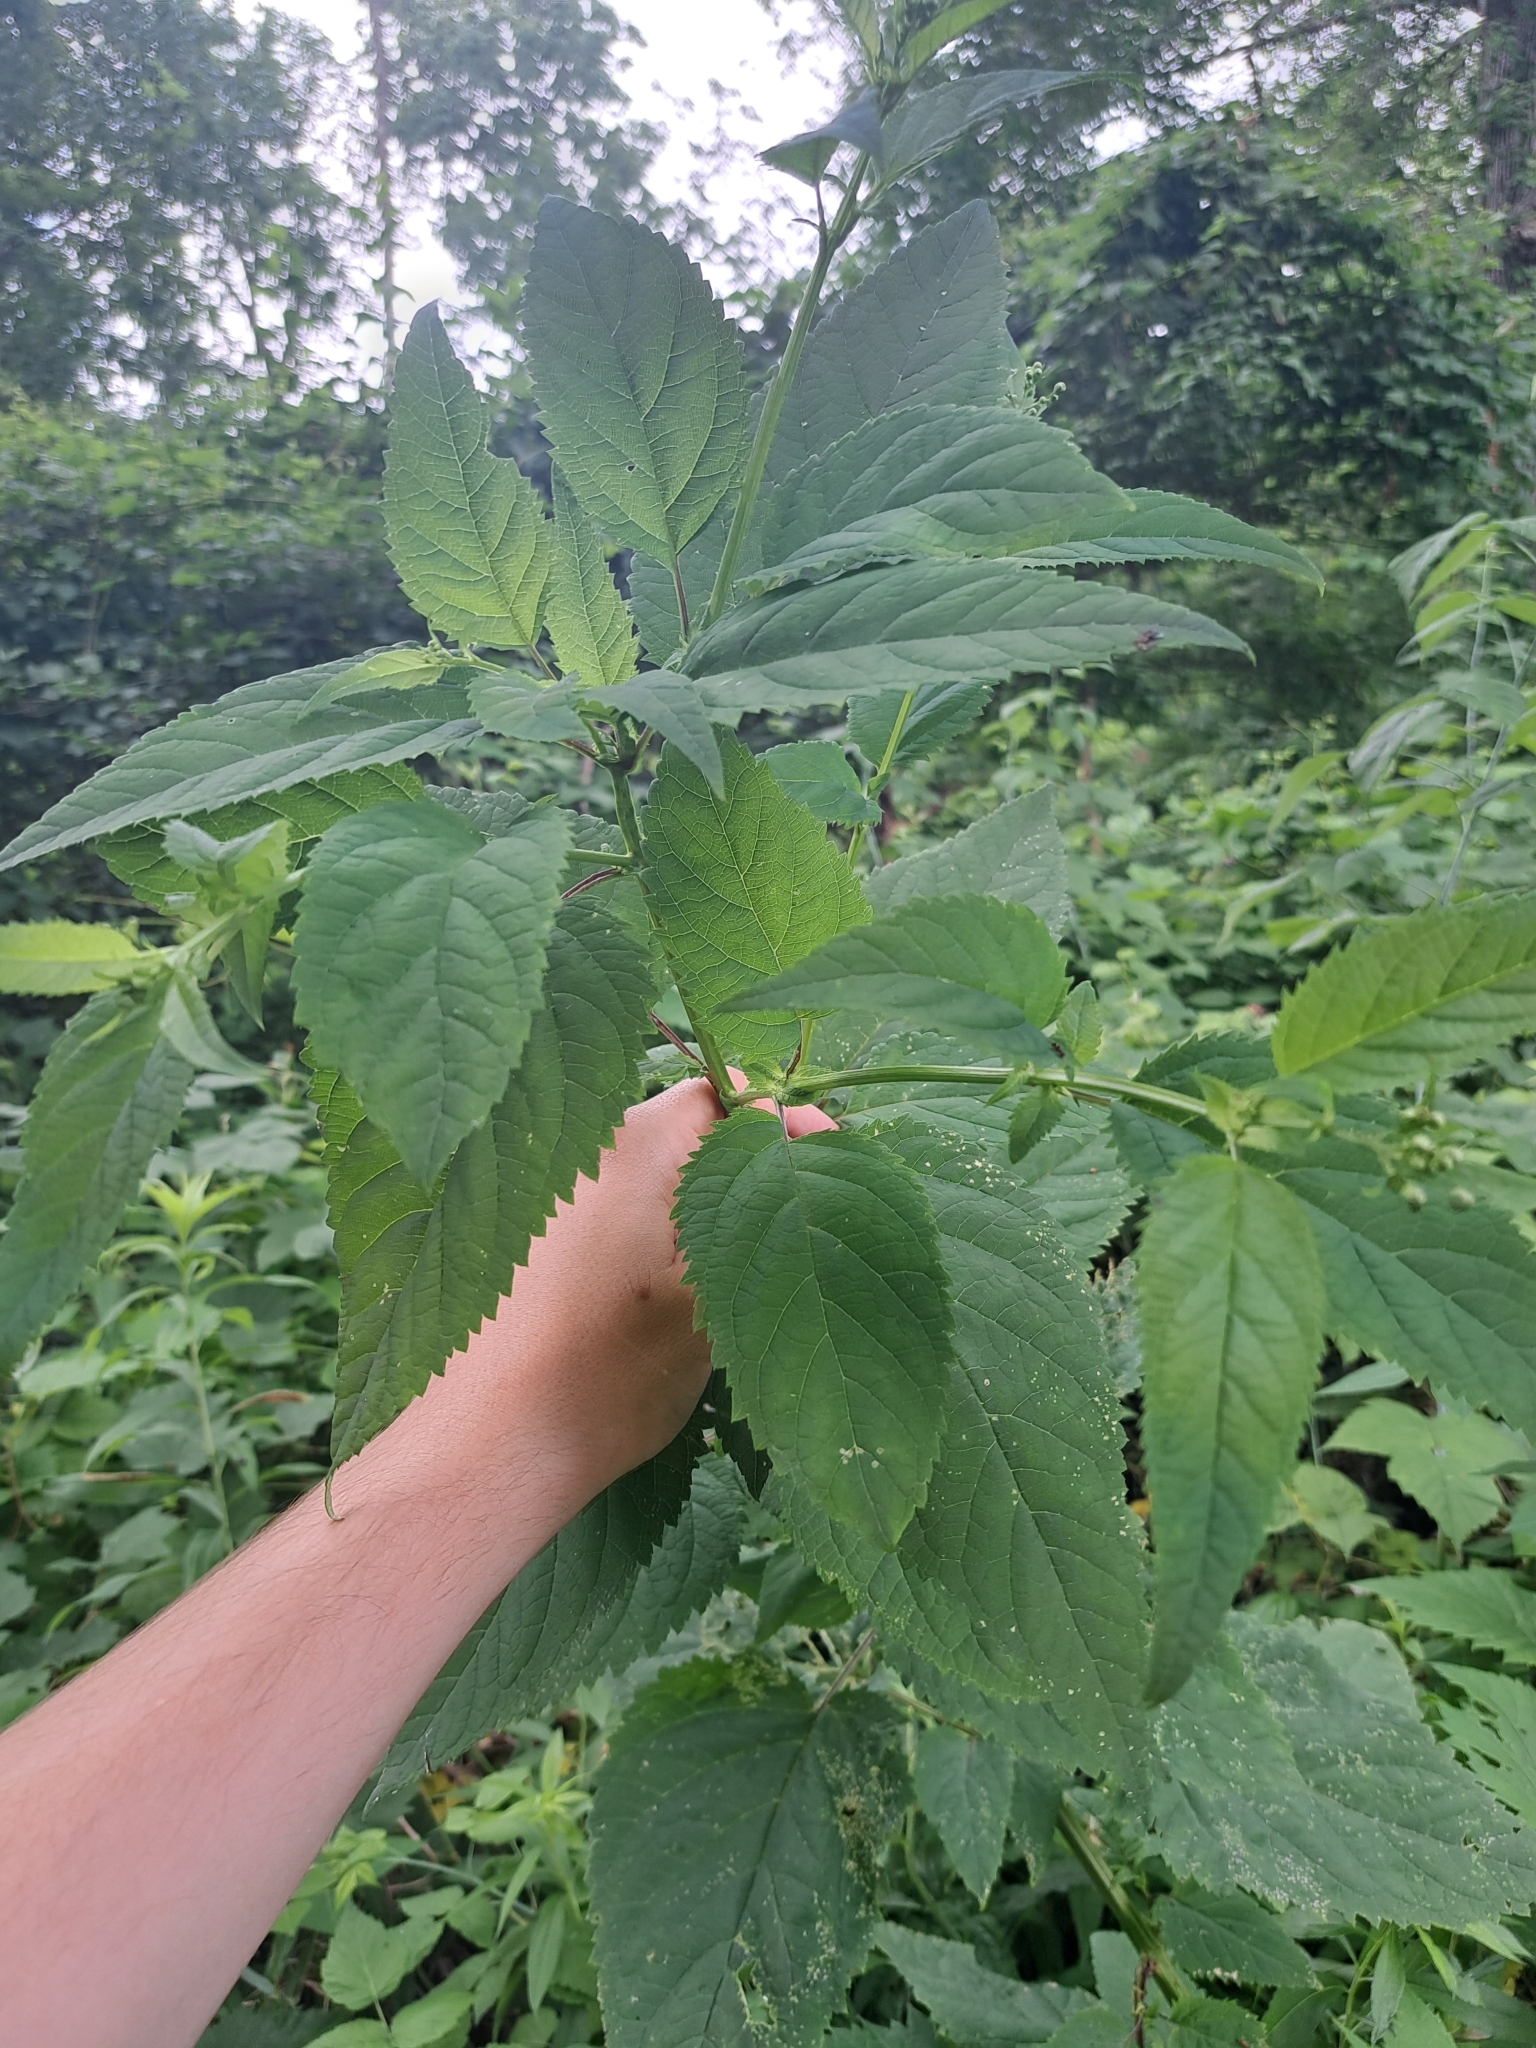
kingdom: Plantae
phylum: Tracheophyta
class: Magnoliopsida
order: Lamiales
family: Scrophulariaceae
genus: Scrophularia
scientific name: Scrophularia marilandica
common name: Eastern figwort
